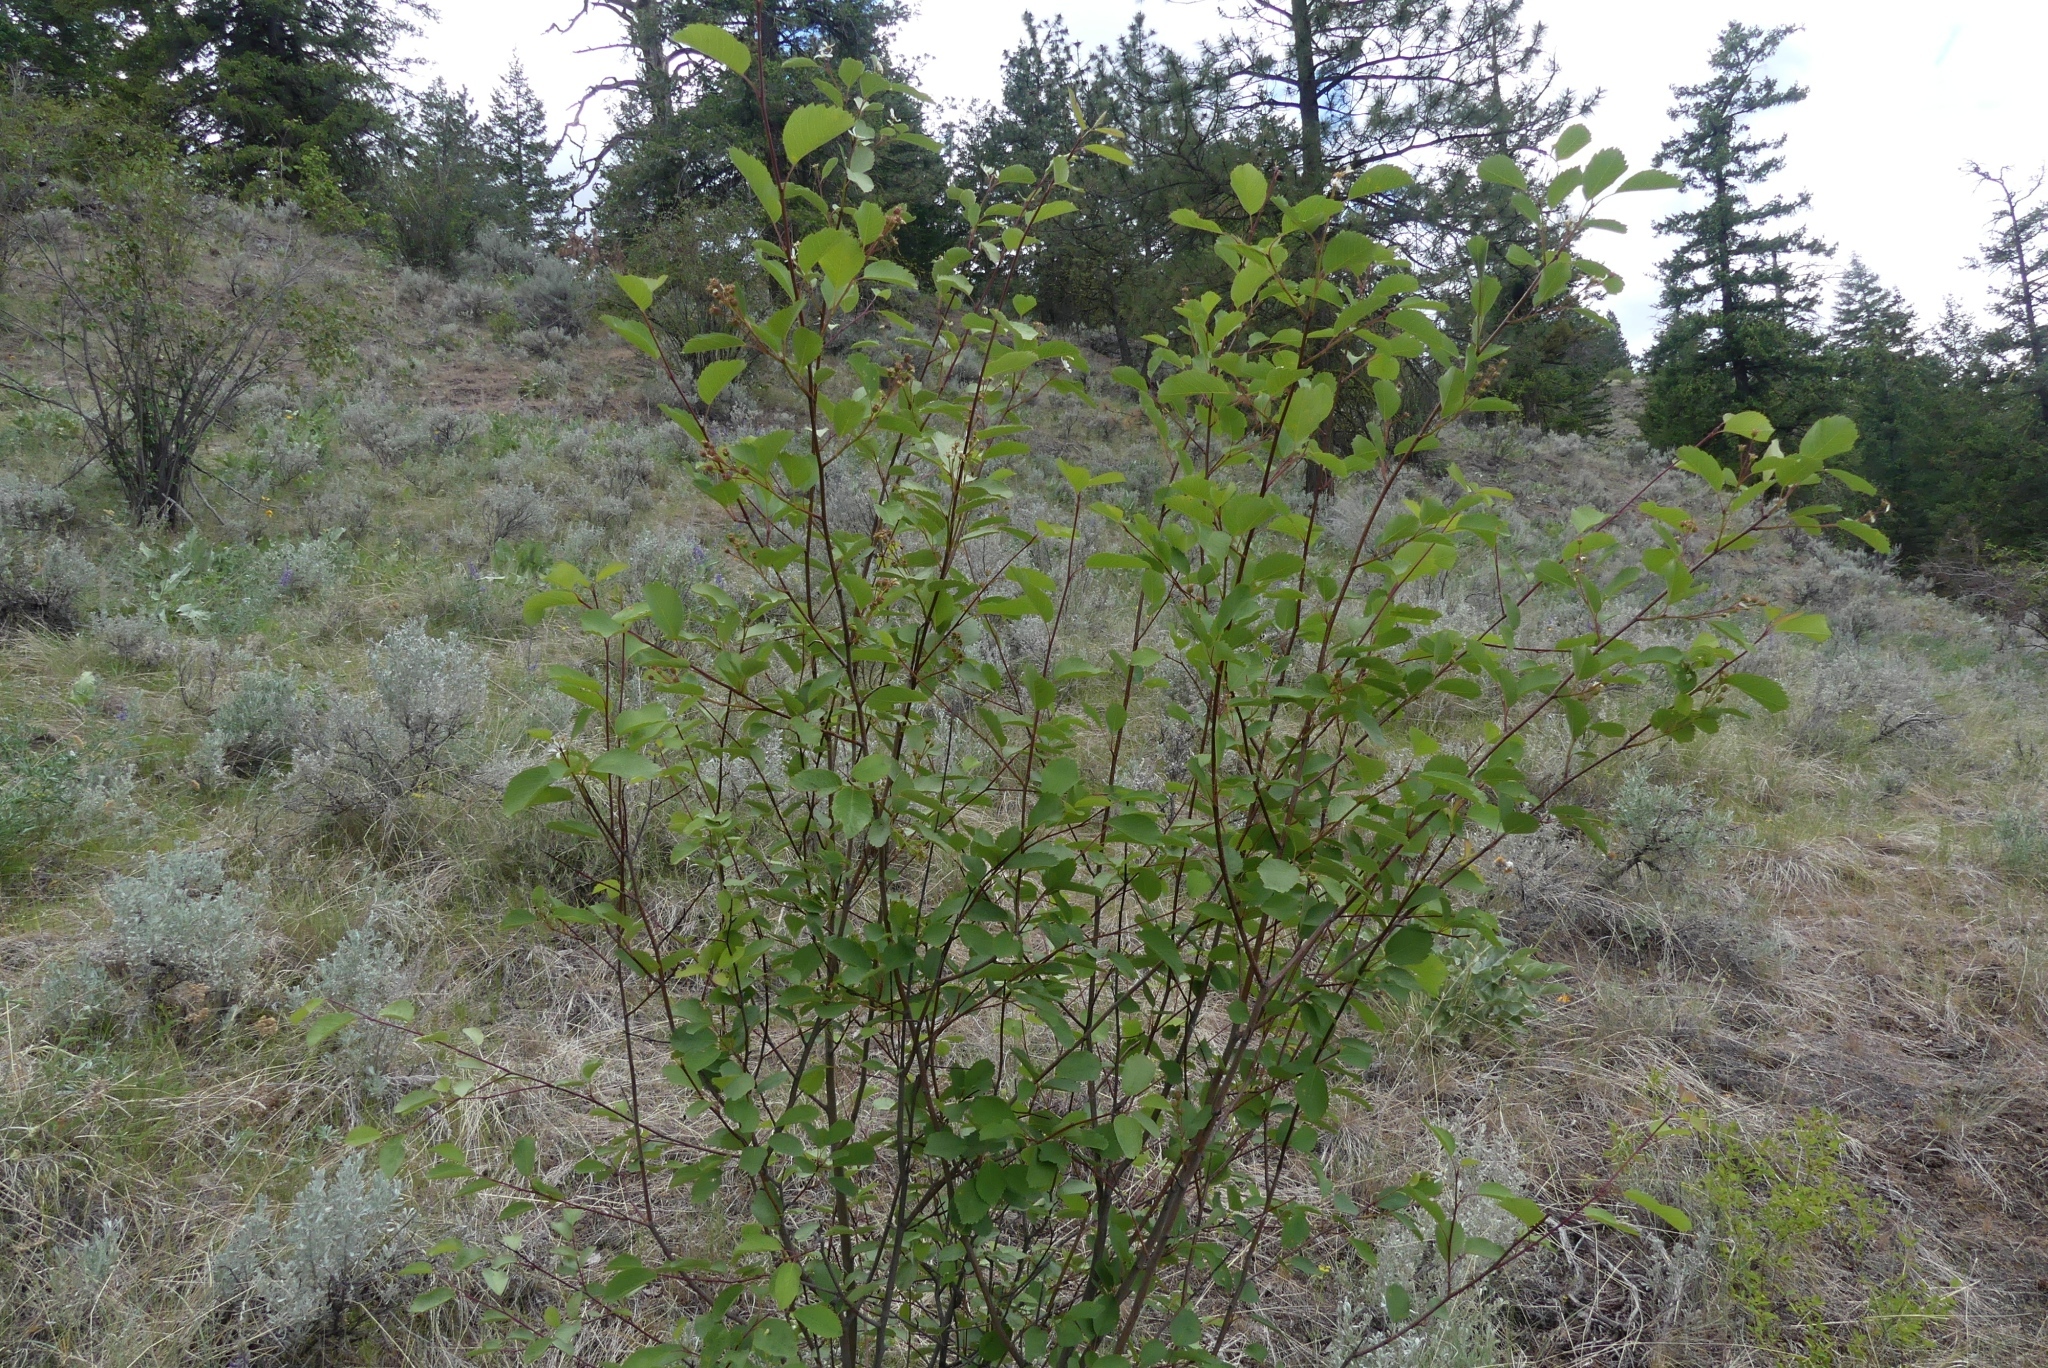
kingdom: Plantae
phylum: Tracheophyta
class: Magnoliopsida
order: Rosales
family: Rosaceae
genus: Amelanchier
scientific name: Amelanchier alnifolia
